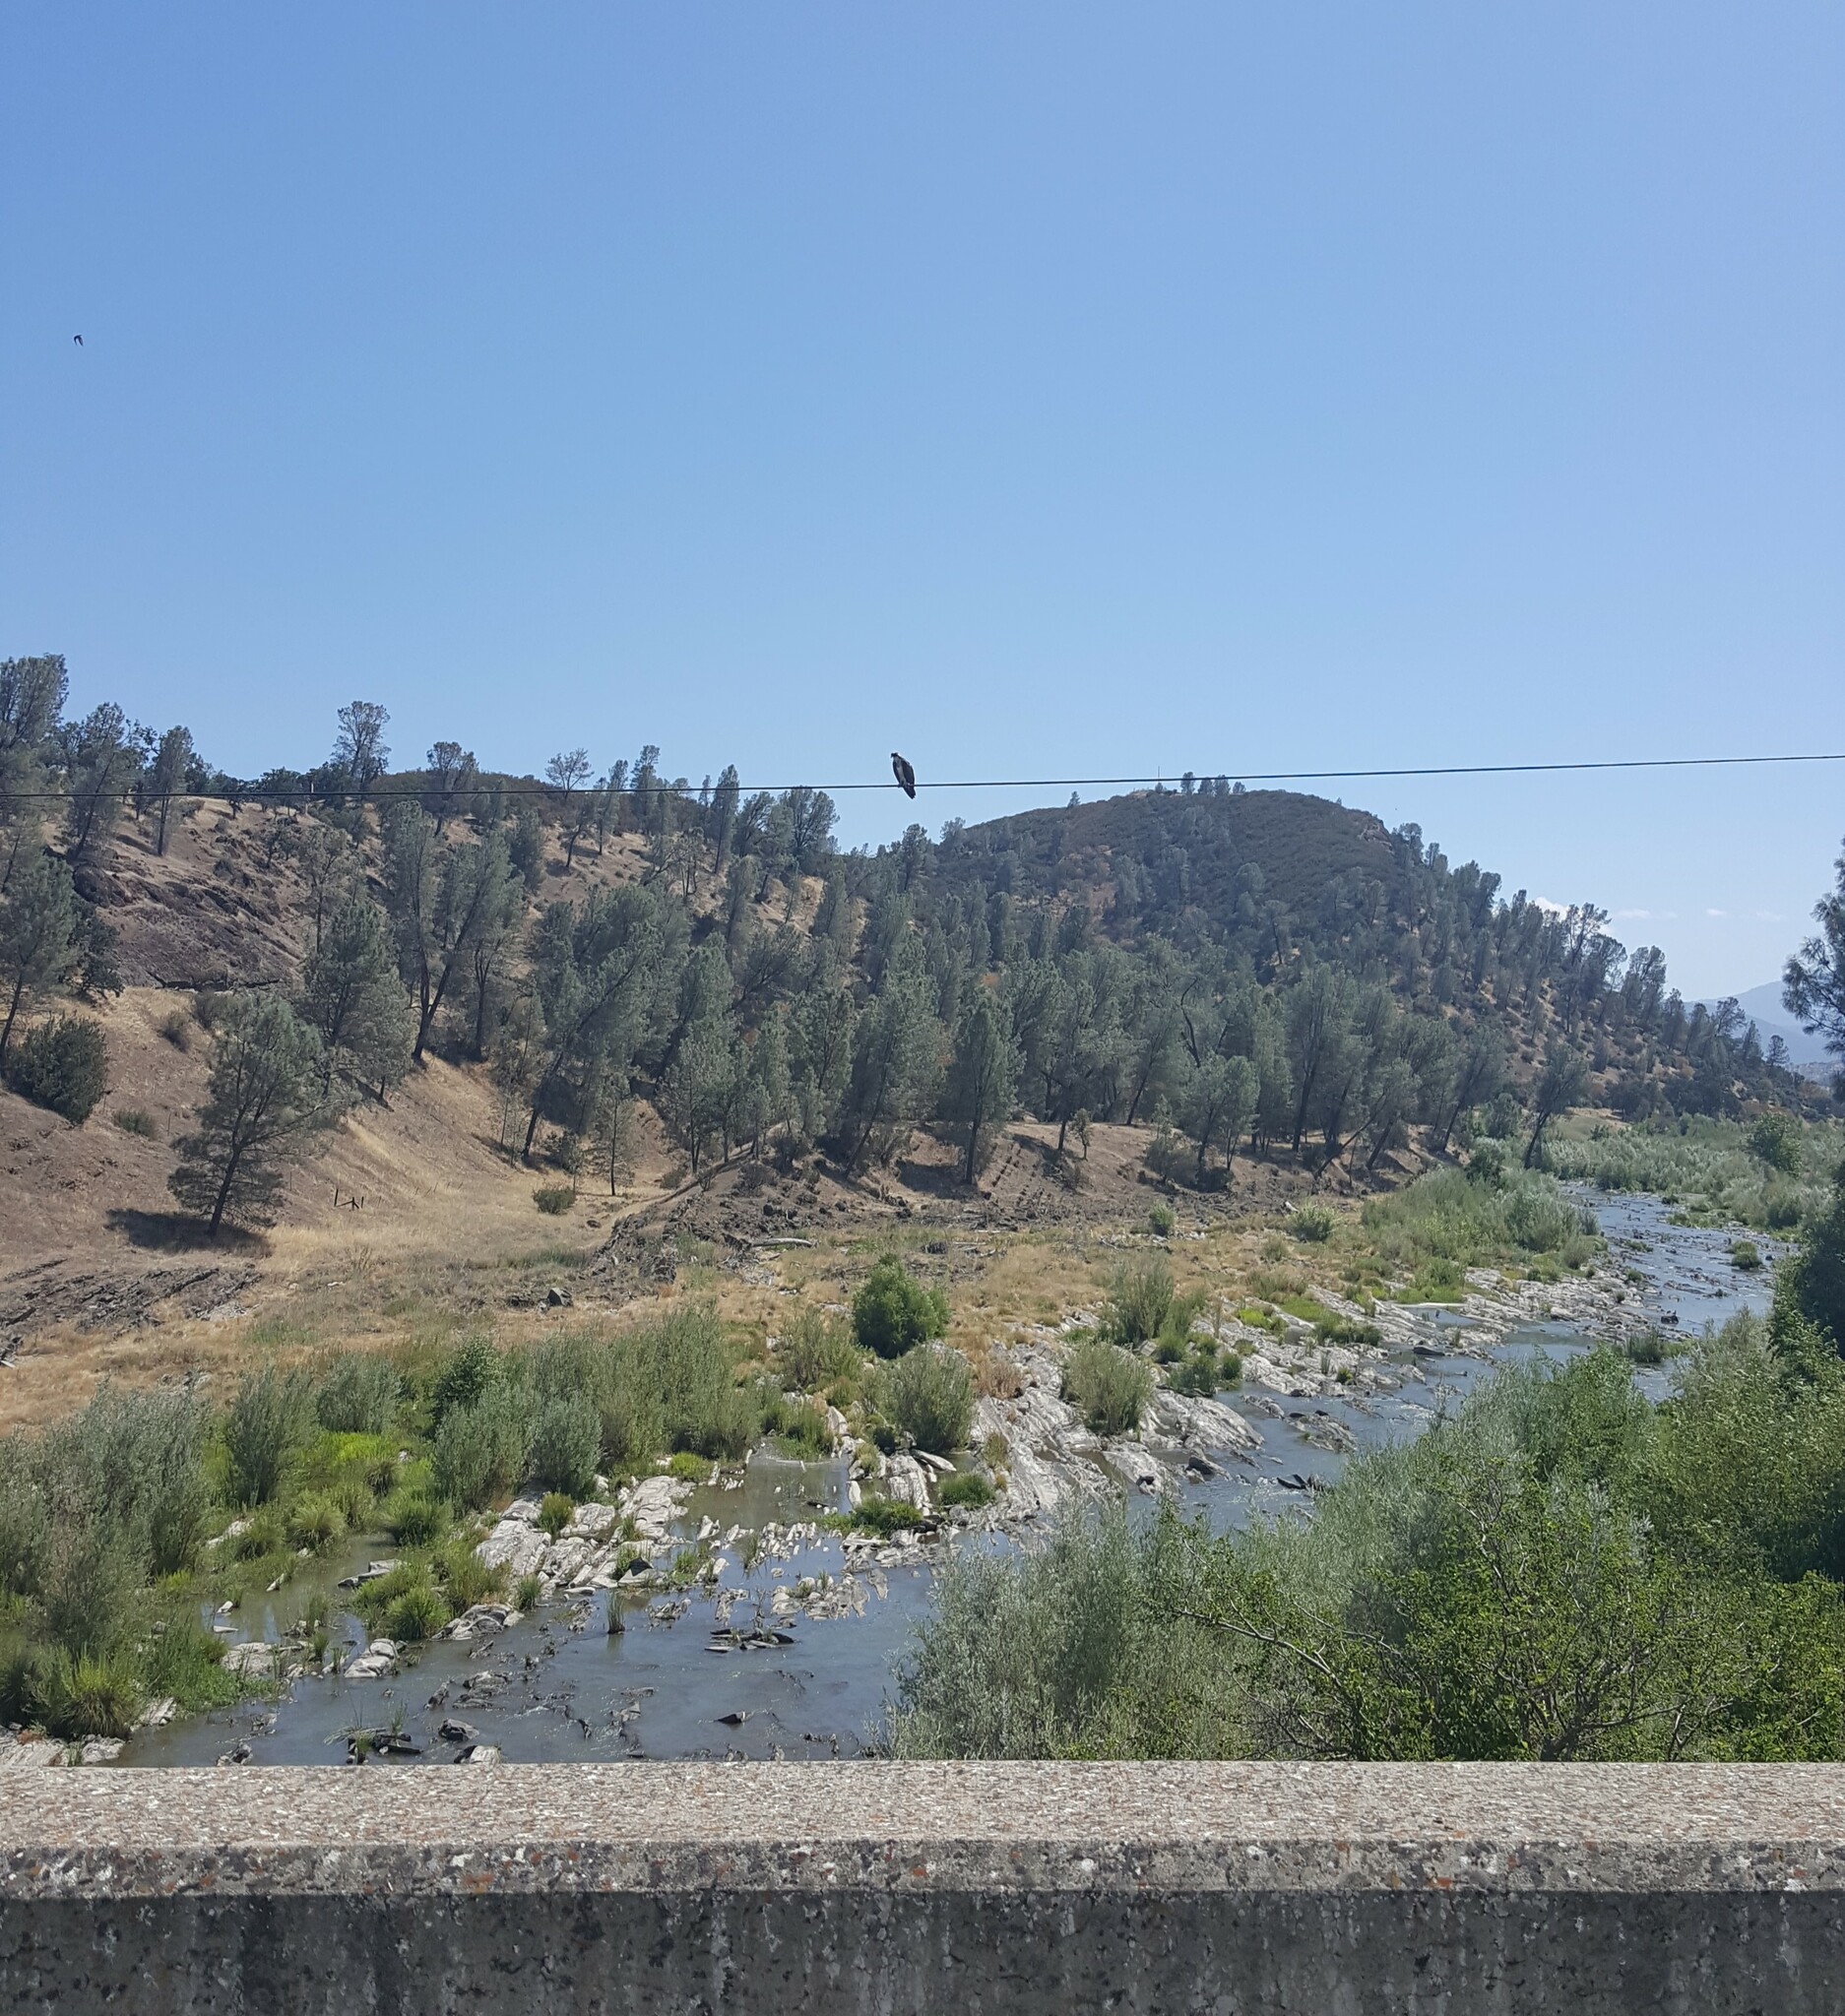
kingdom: Animalia
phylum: Chordata
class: Aves
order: Accipitriformes
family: Pandionidae
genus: Pandion
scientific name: Pandion haliaetus
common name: Osprey
